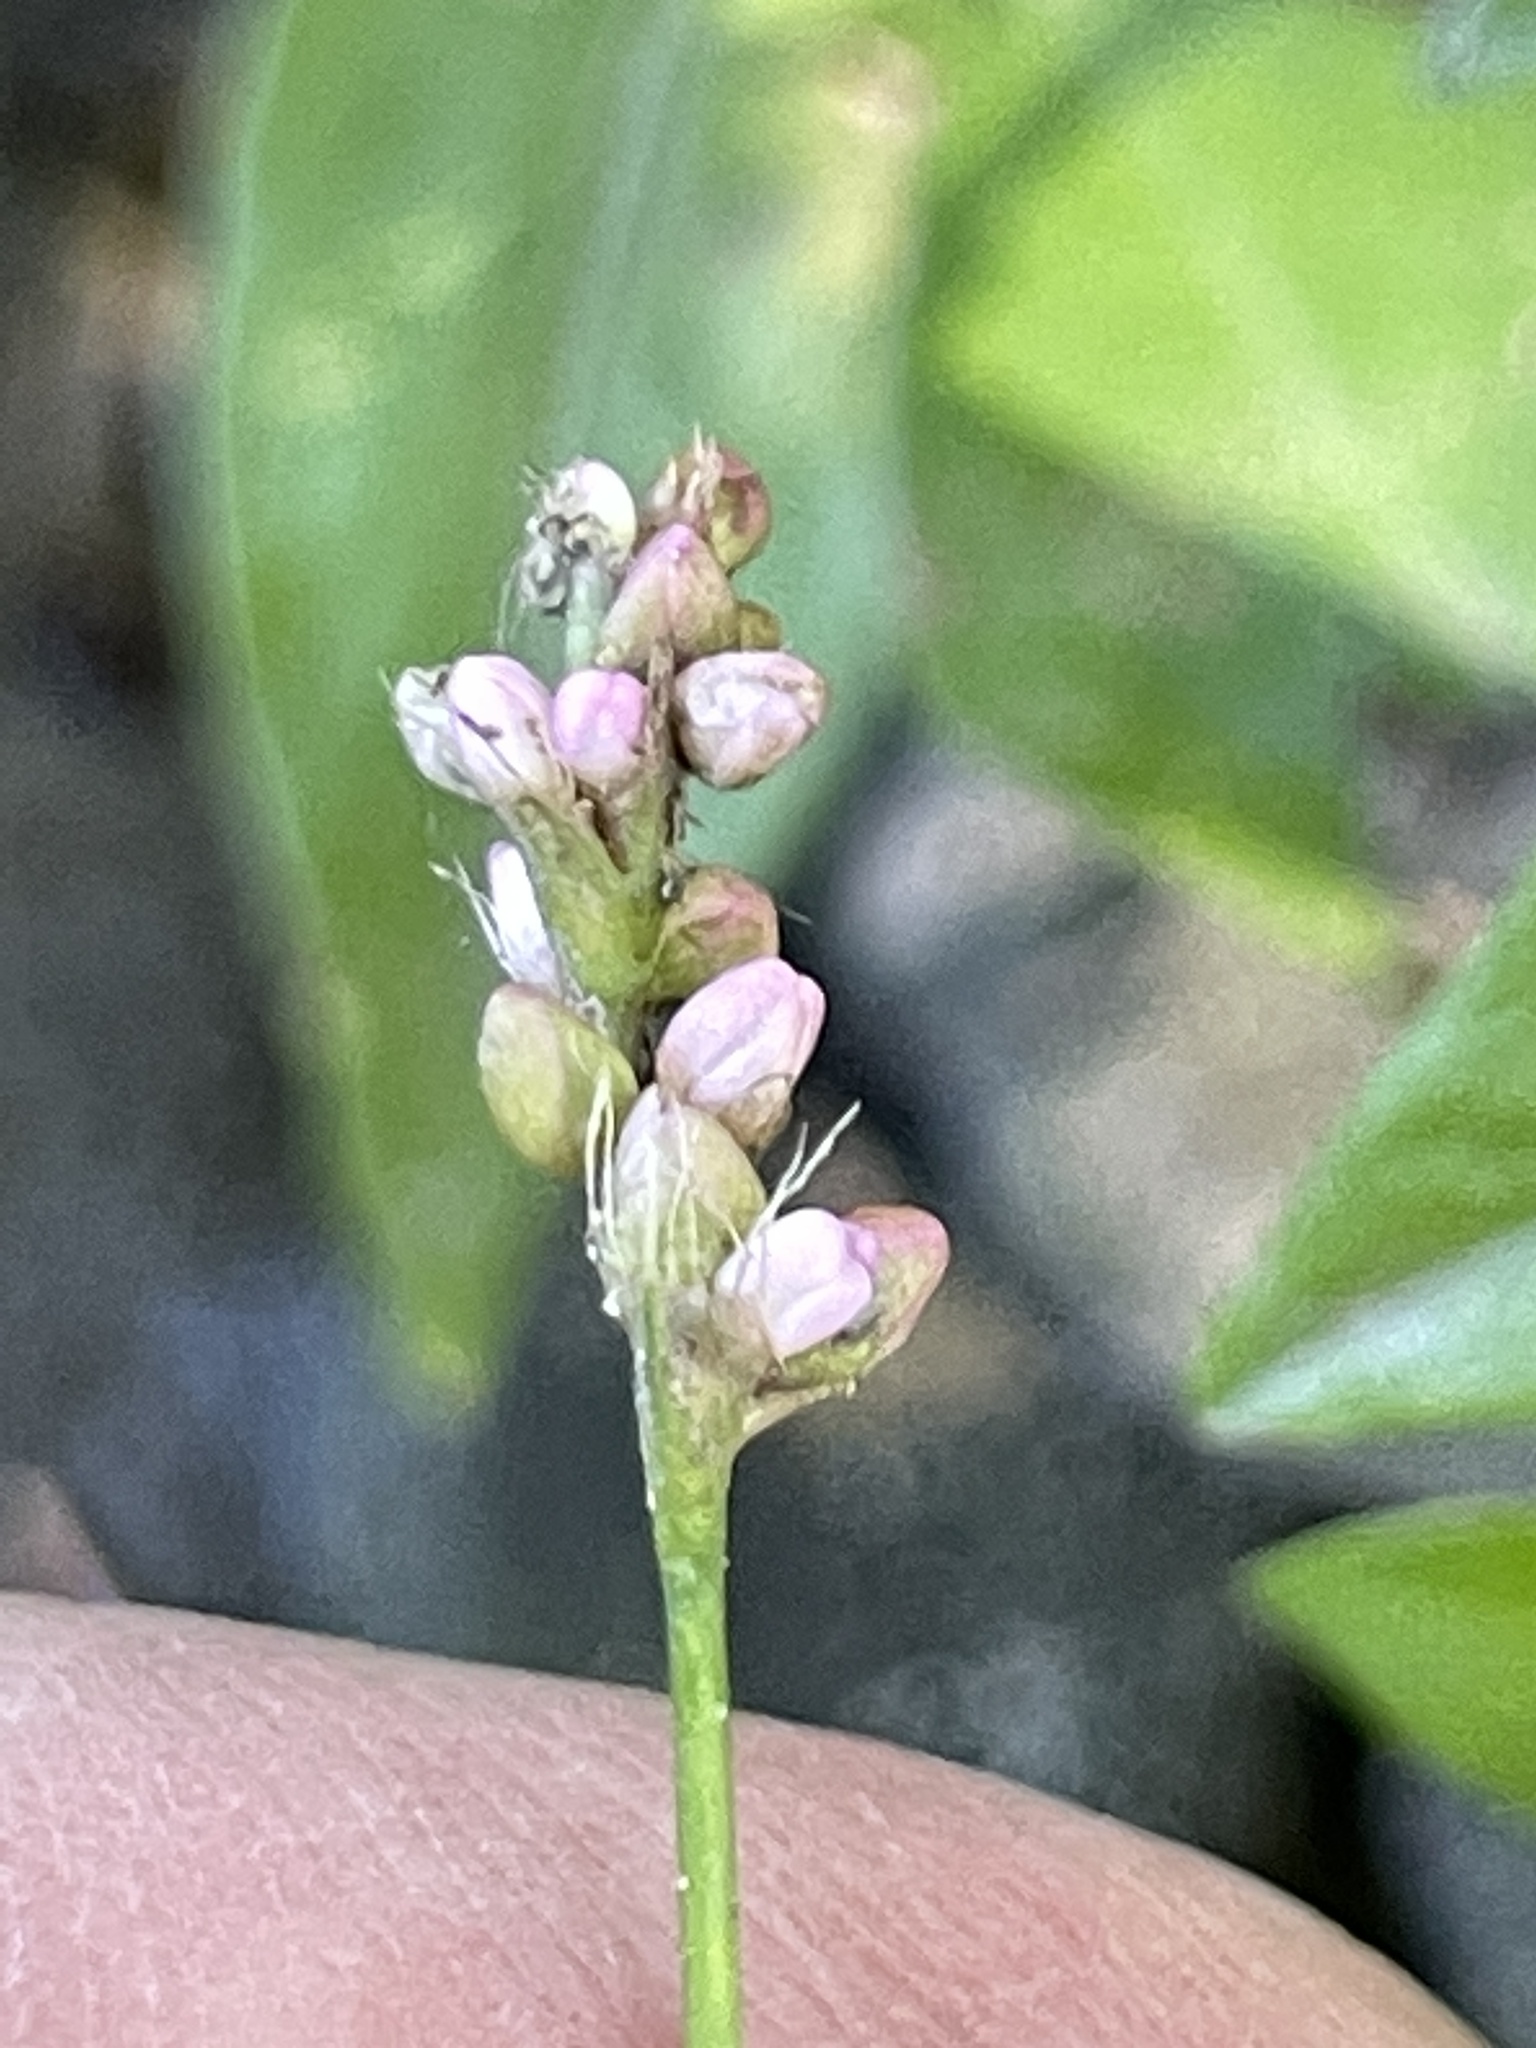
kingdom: Plantae
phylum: Tracheophyta
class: Magnoliopsida
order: Caryophyllales
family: Polygonaceae
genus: Persicaria
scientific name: Persicaria longiseta
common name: Bristly lady's-thumb
